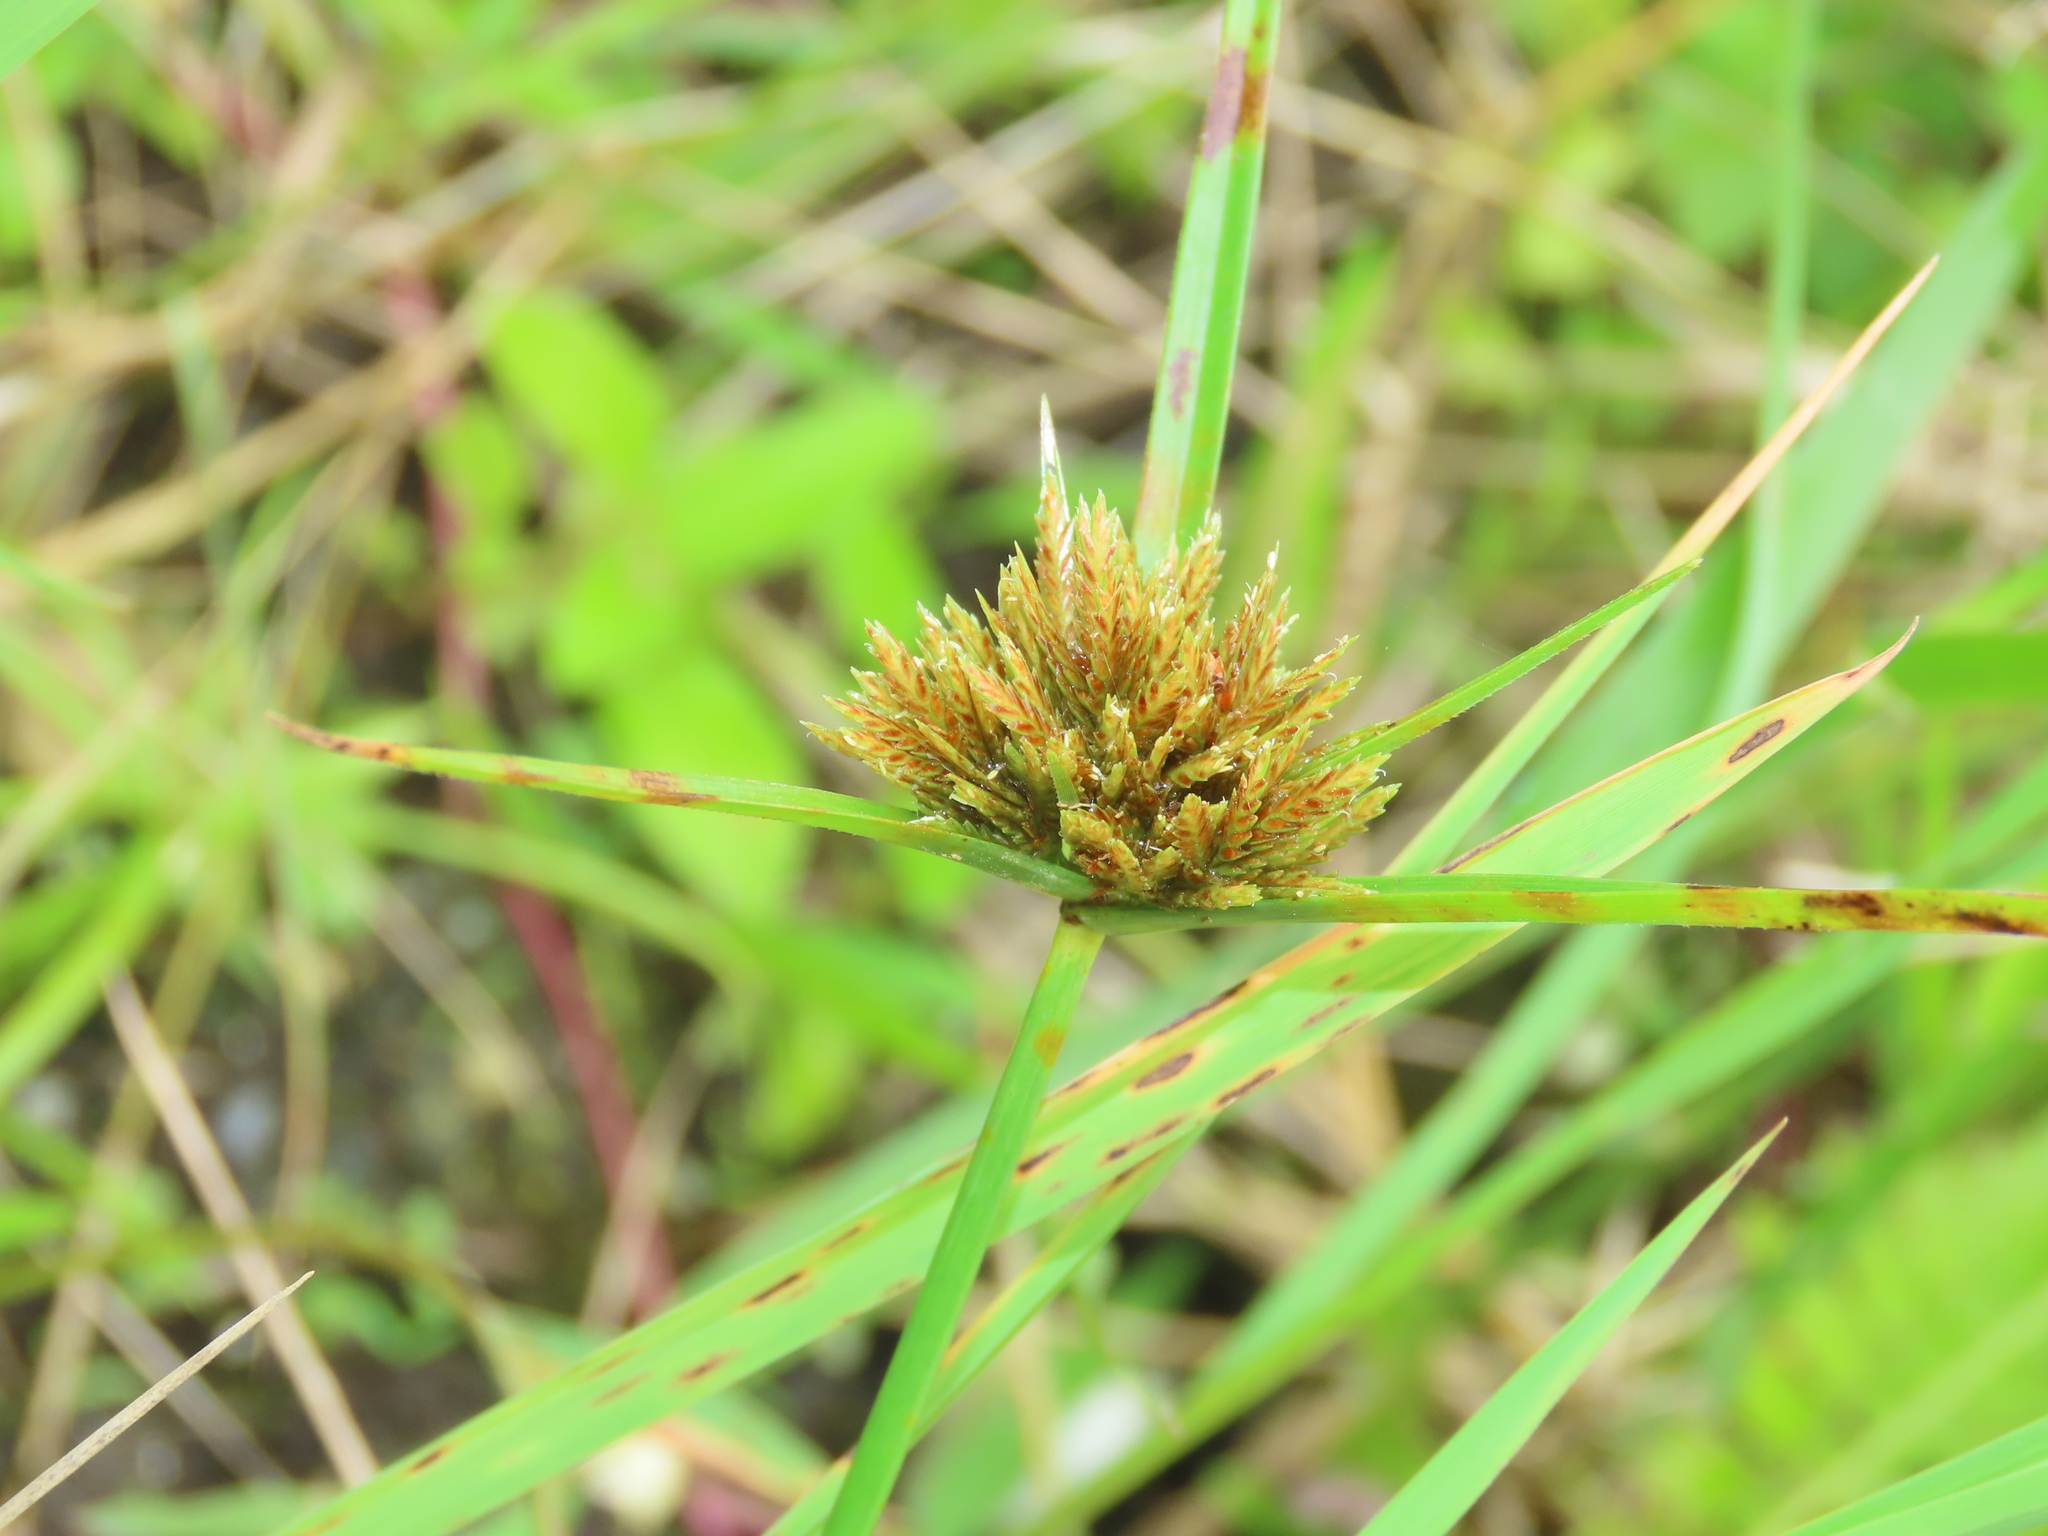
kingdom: Plantae
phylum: Tracheophyta
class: Liliopsida
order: Poales
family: Cyperaceae
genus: Cyperus
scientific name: Cyperus polystachyos
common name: Bunchy flat sedge
